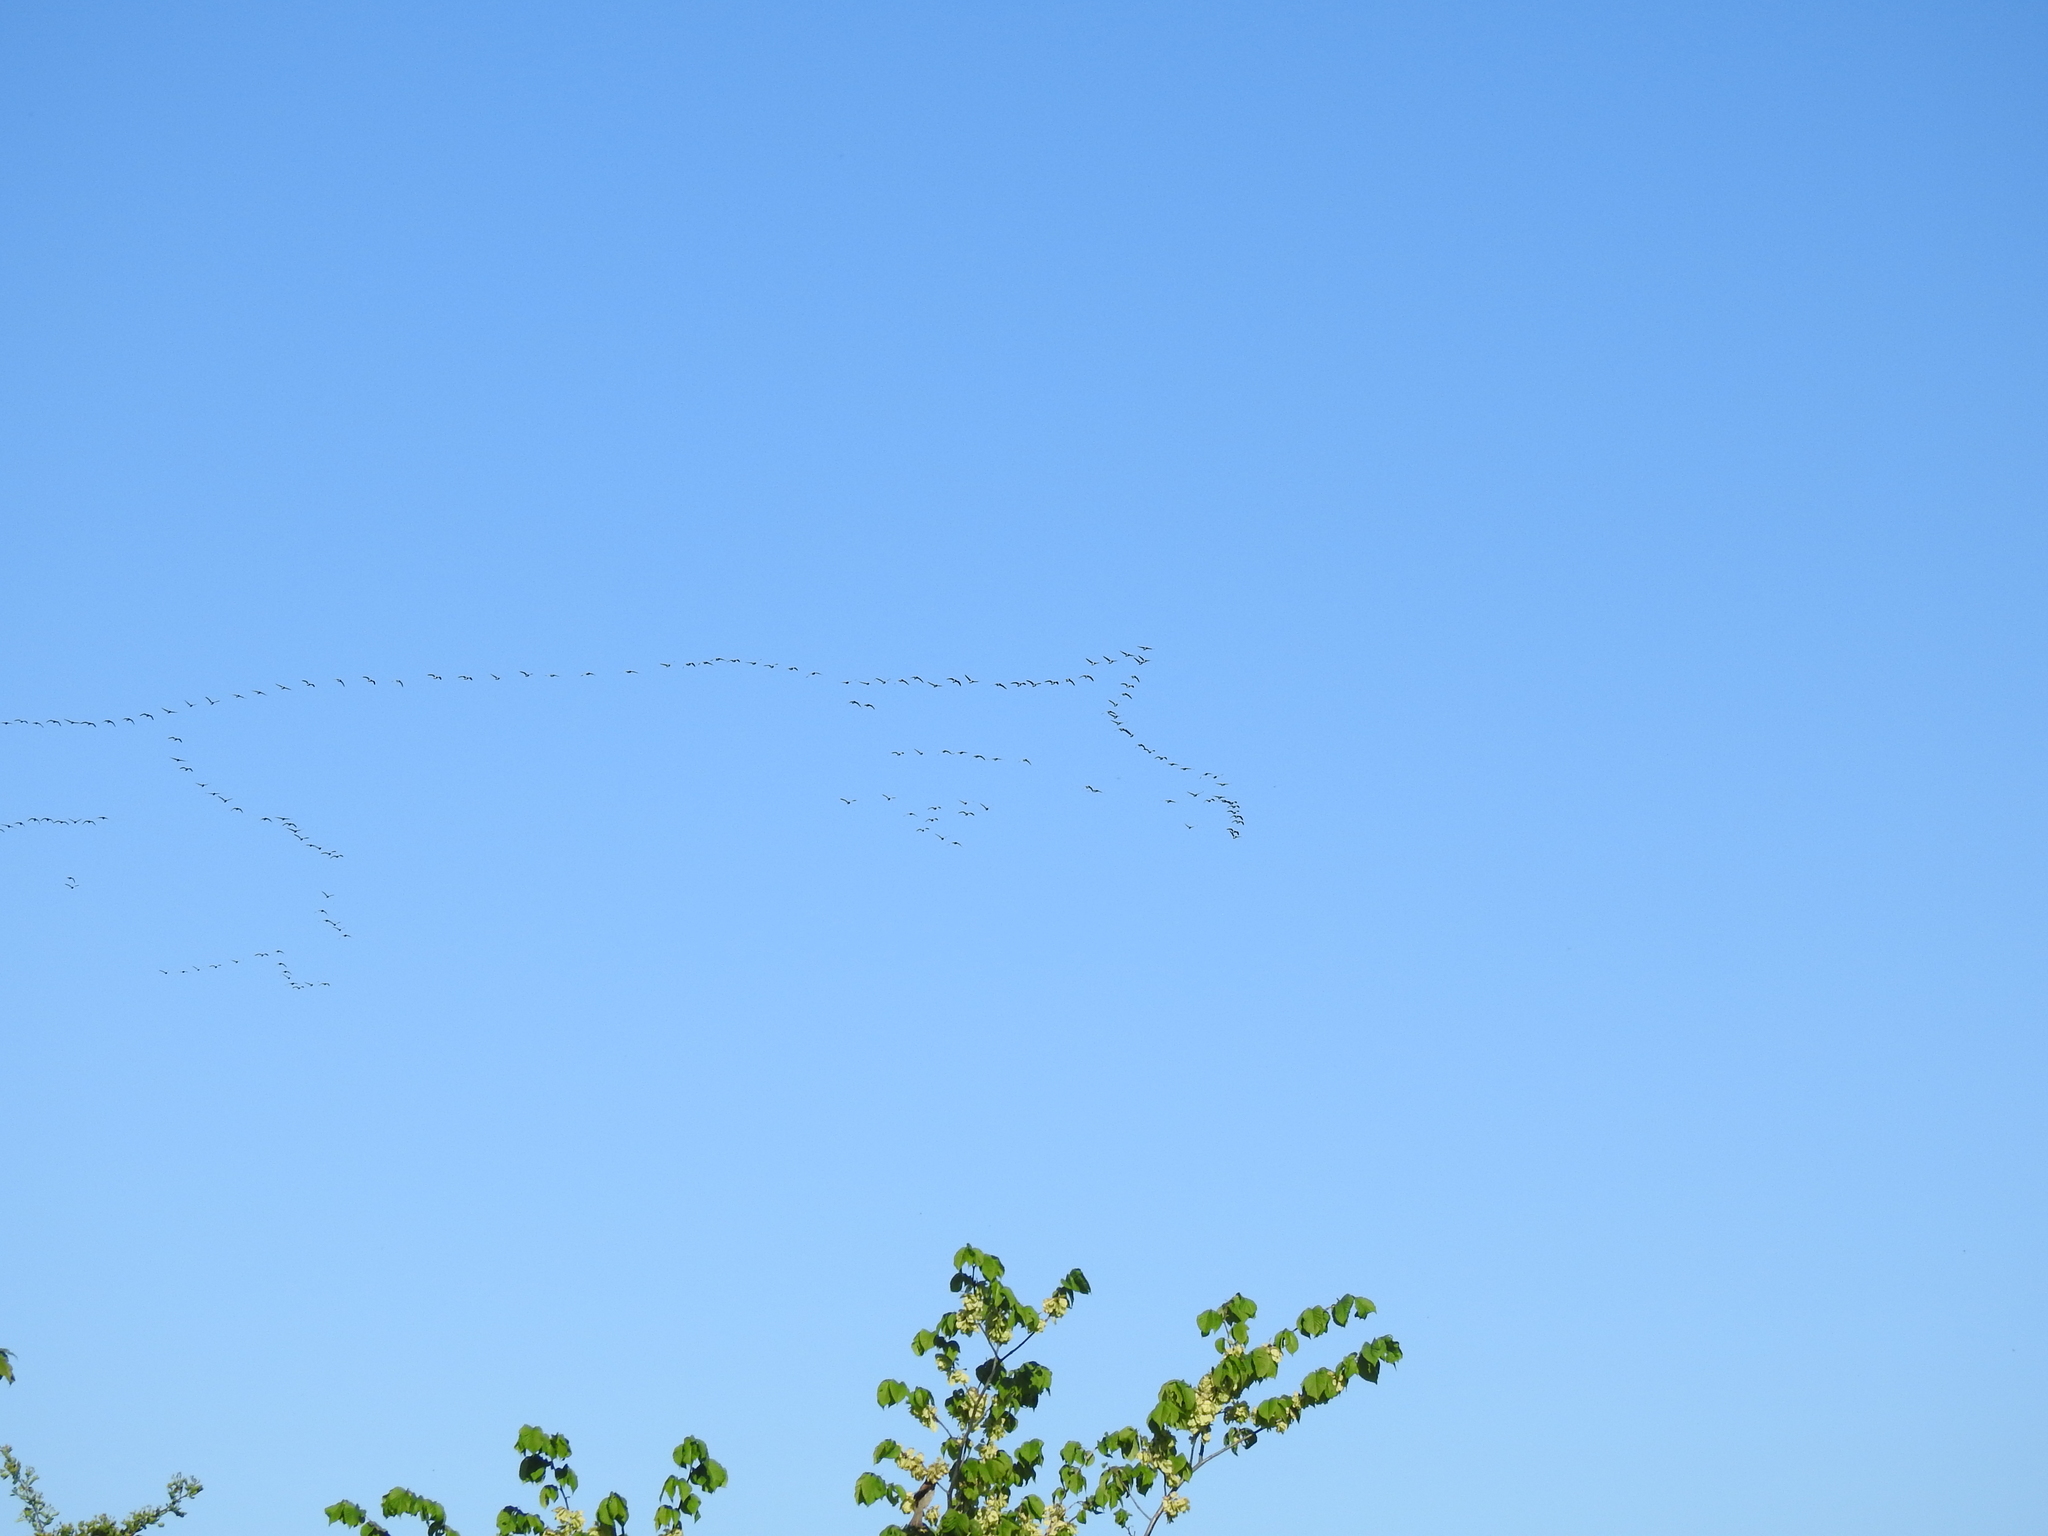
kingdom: Animalia
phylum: Chordata
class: Aves
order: Anseriformes
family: Anatidae
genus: Branta
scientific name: Branta leucopsis
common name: Barnacle goose
